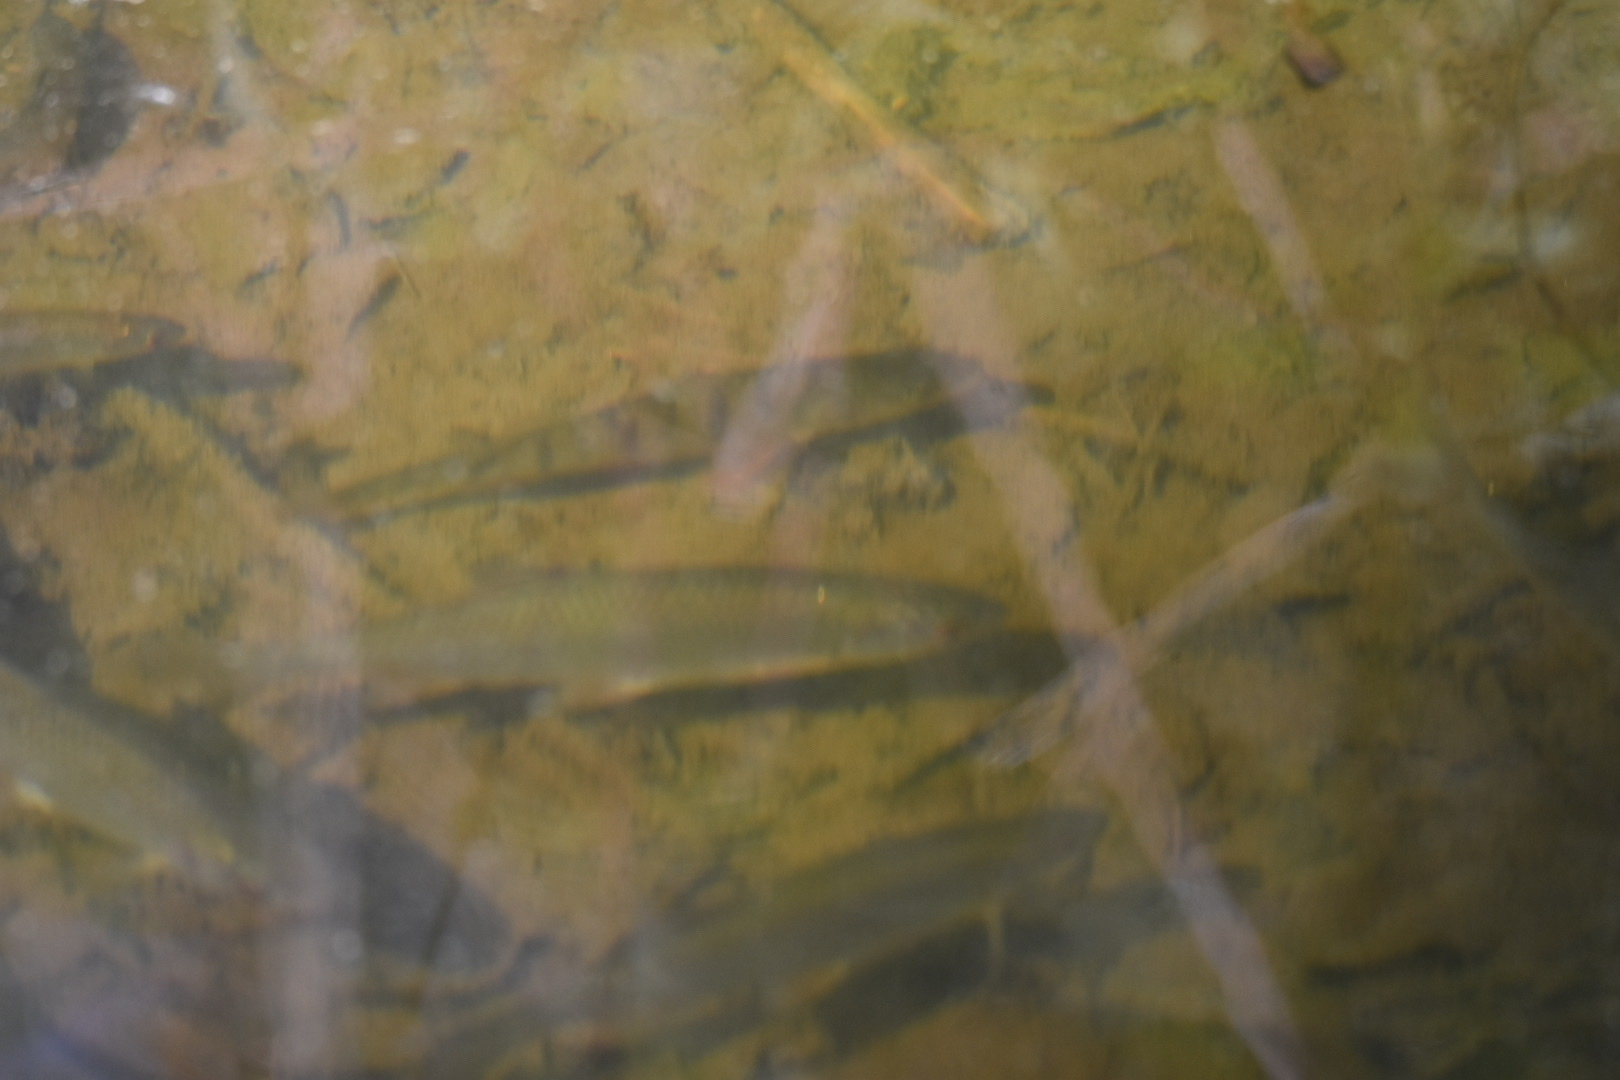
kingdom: Animalia
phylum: Chordata
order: Cypriniformes
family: Cyprinidae
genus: Rutilus
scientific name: Rutilus rutilus
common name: Roach
